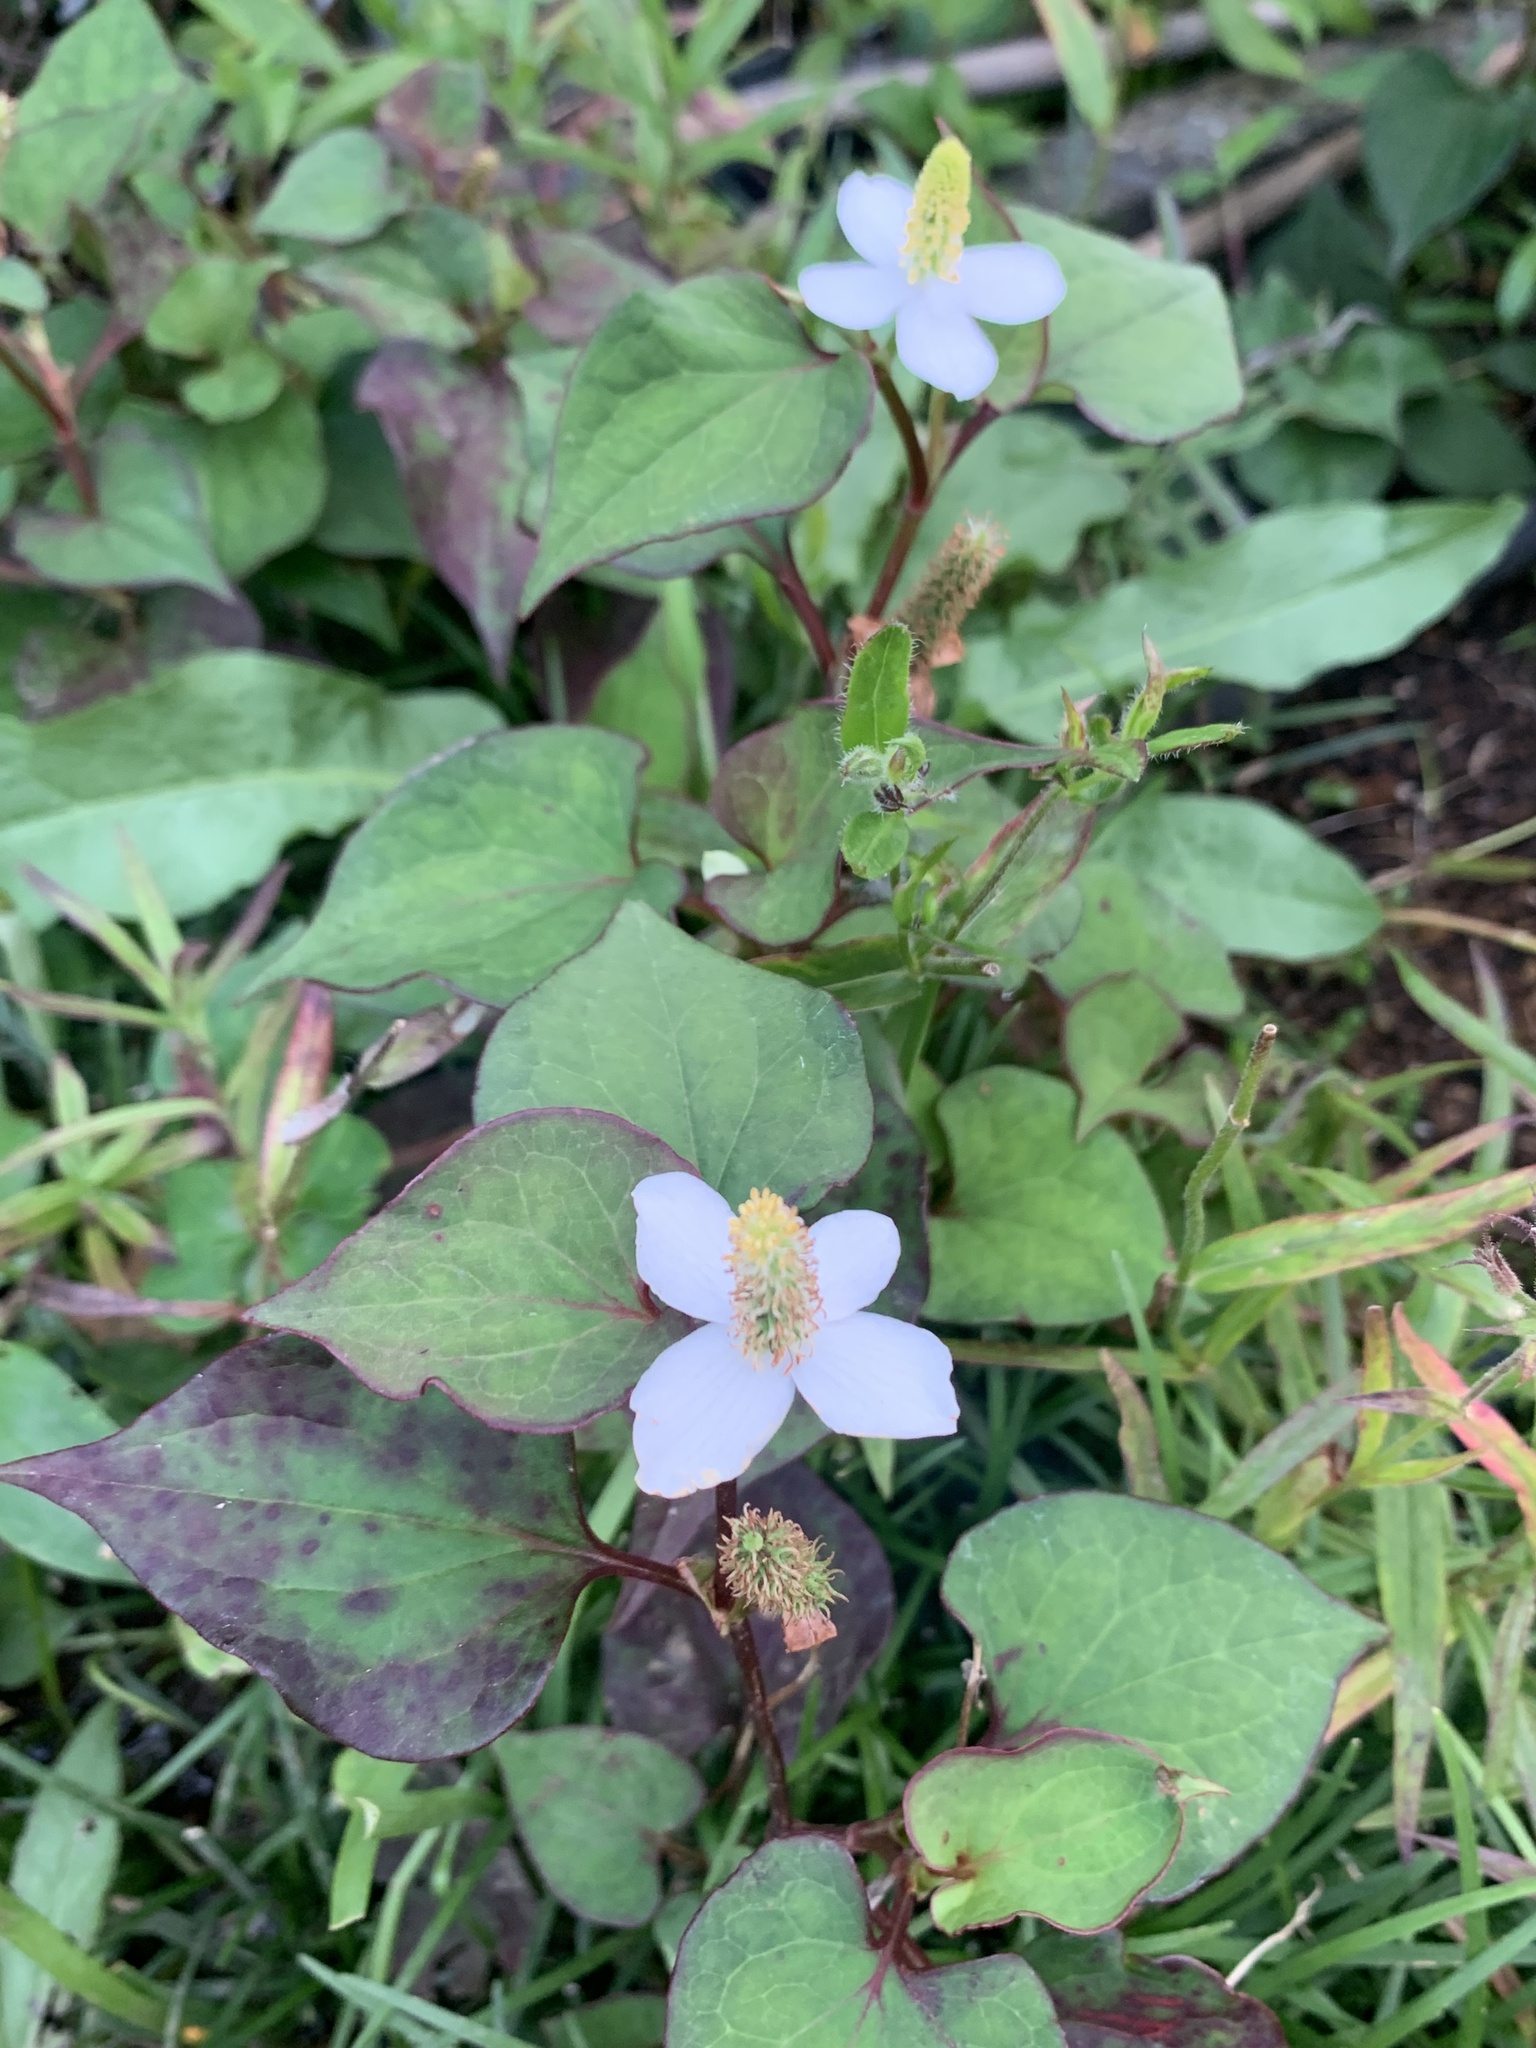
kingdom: Plantae
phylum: Tracheophyta
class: Magnoliopsida
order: Piperales
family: Saururaceae
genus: Houttuynia
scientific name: Houttuynia cordata
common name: Chameleon
